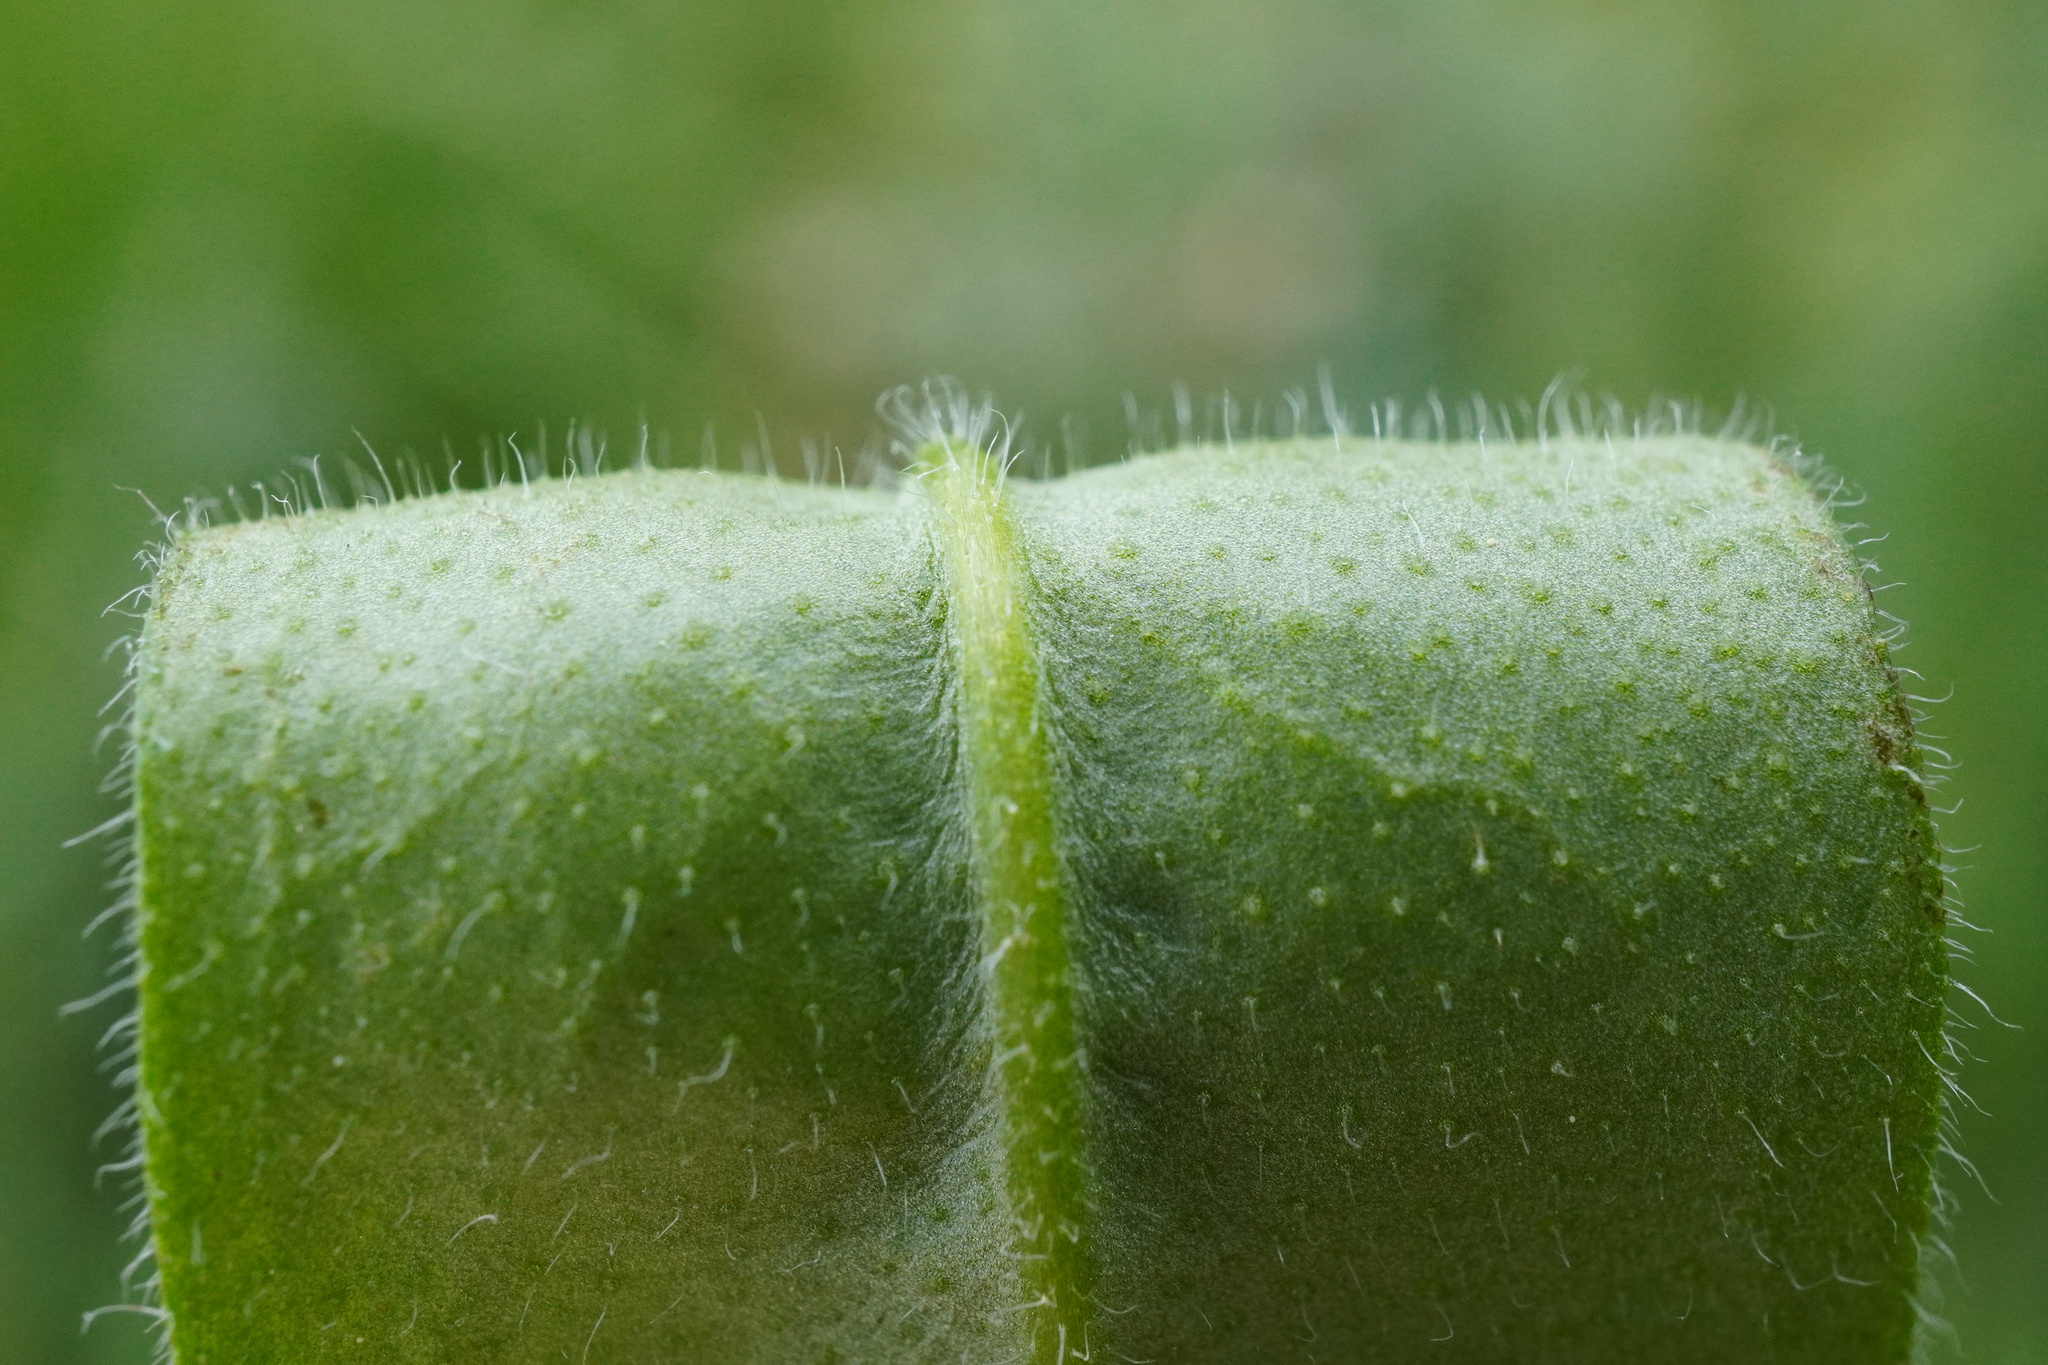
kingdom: Plantae
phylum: Tracheophyta
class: Magnoliopsida
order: Boraginales
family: Boraginaceae
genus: Myosotis
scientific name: Myosotis arvensis
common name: Field forget-me-not
